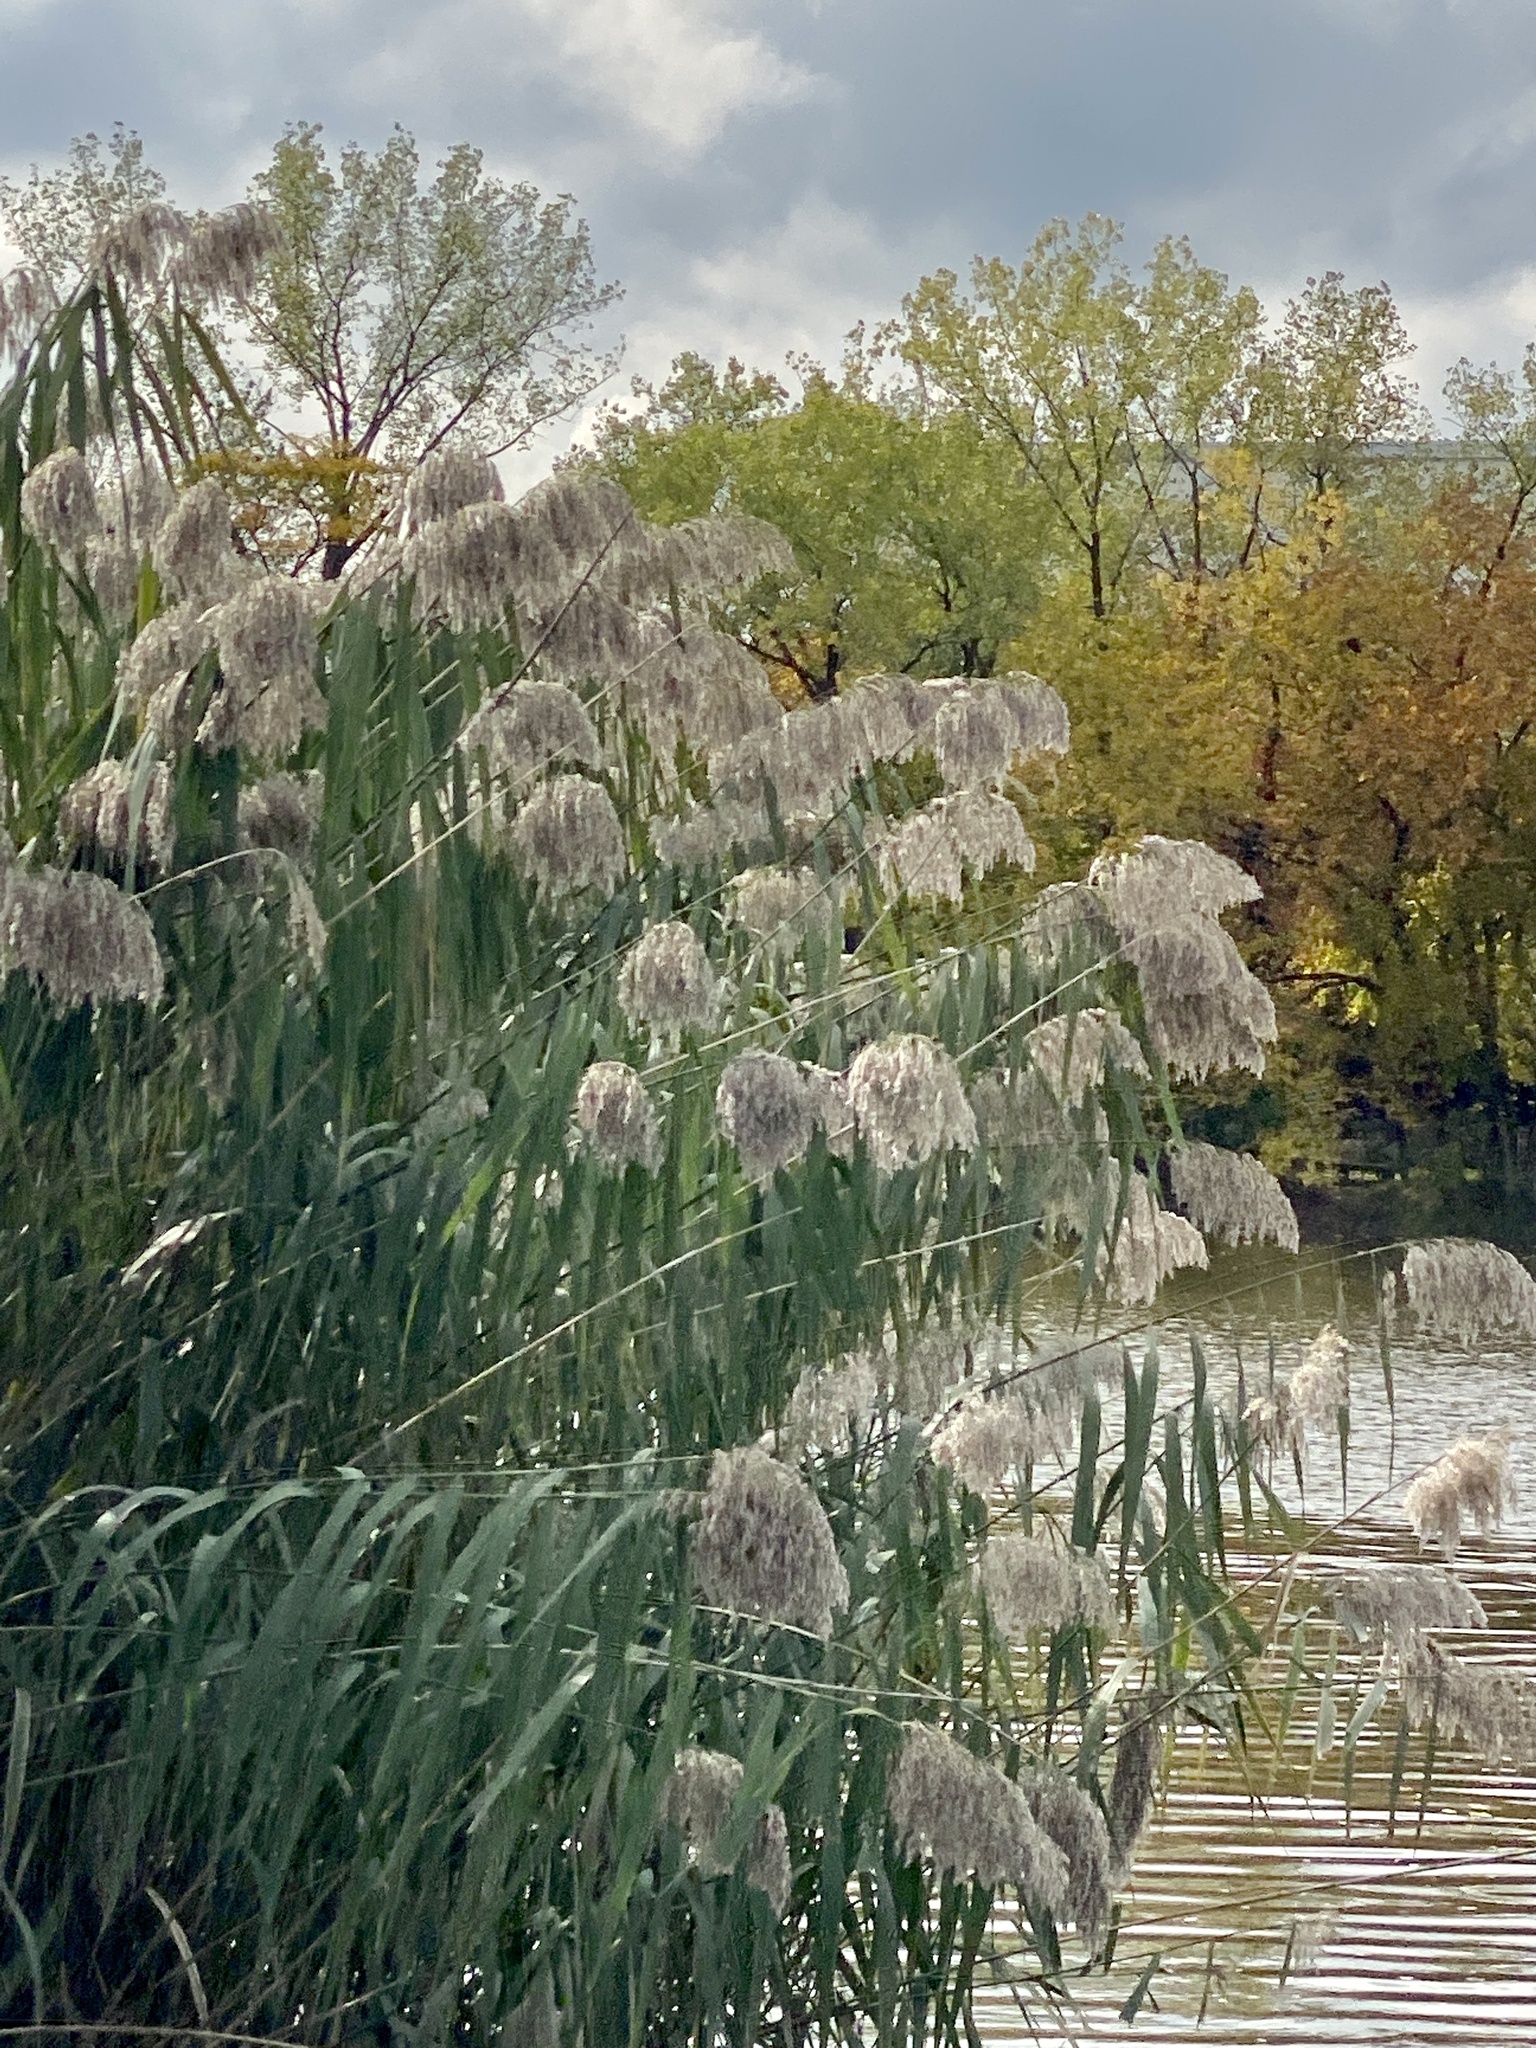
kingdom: Plantae
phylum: Tracheophyta
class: Liliopsida
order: Poales
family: Poaceae
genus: Phragmites
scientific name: Phragmites australis
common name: Common reed
